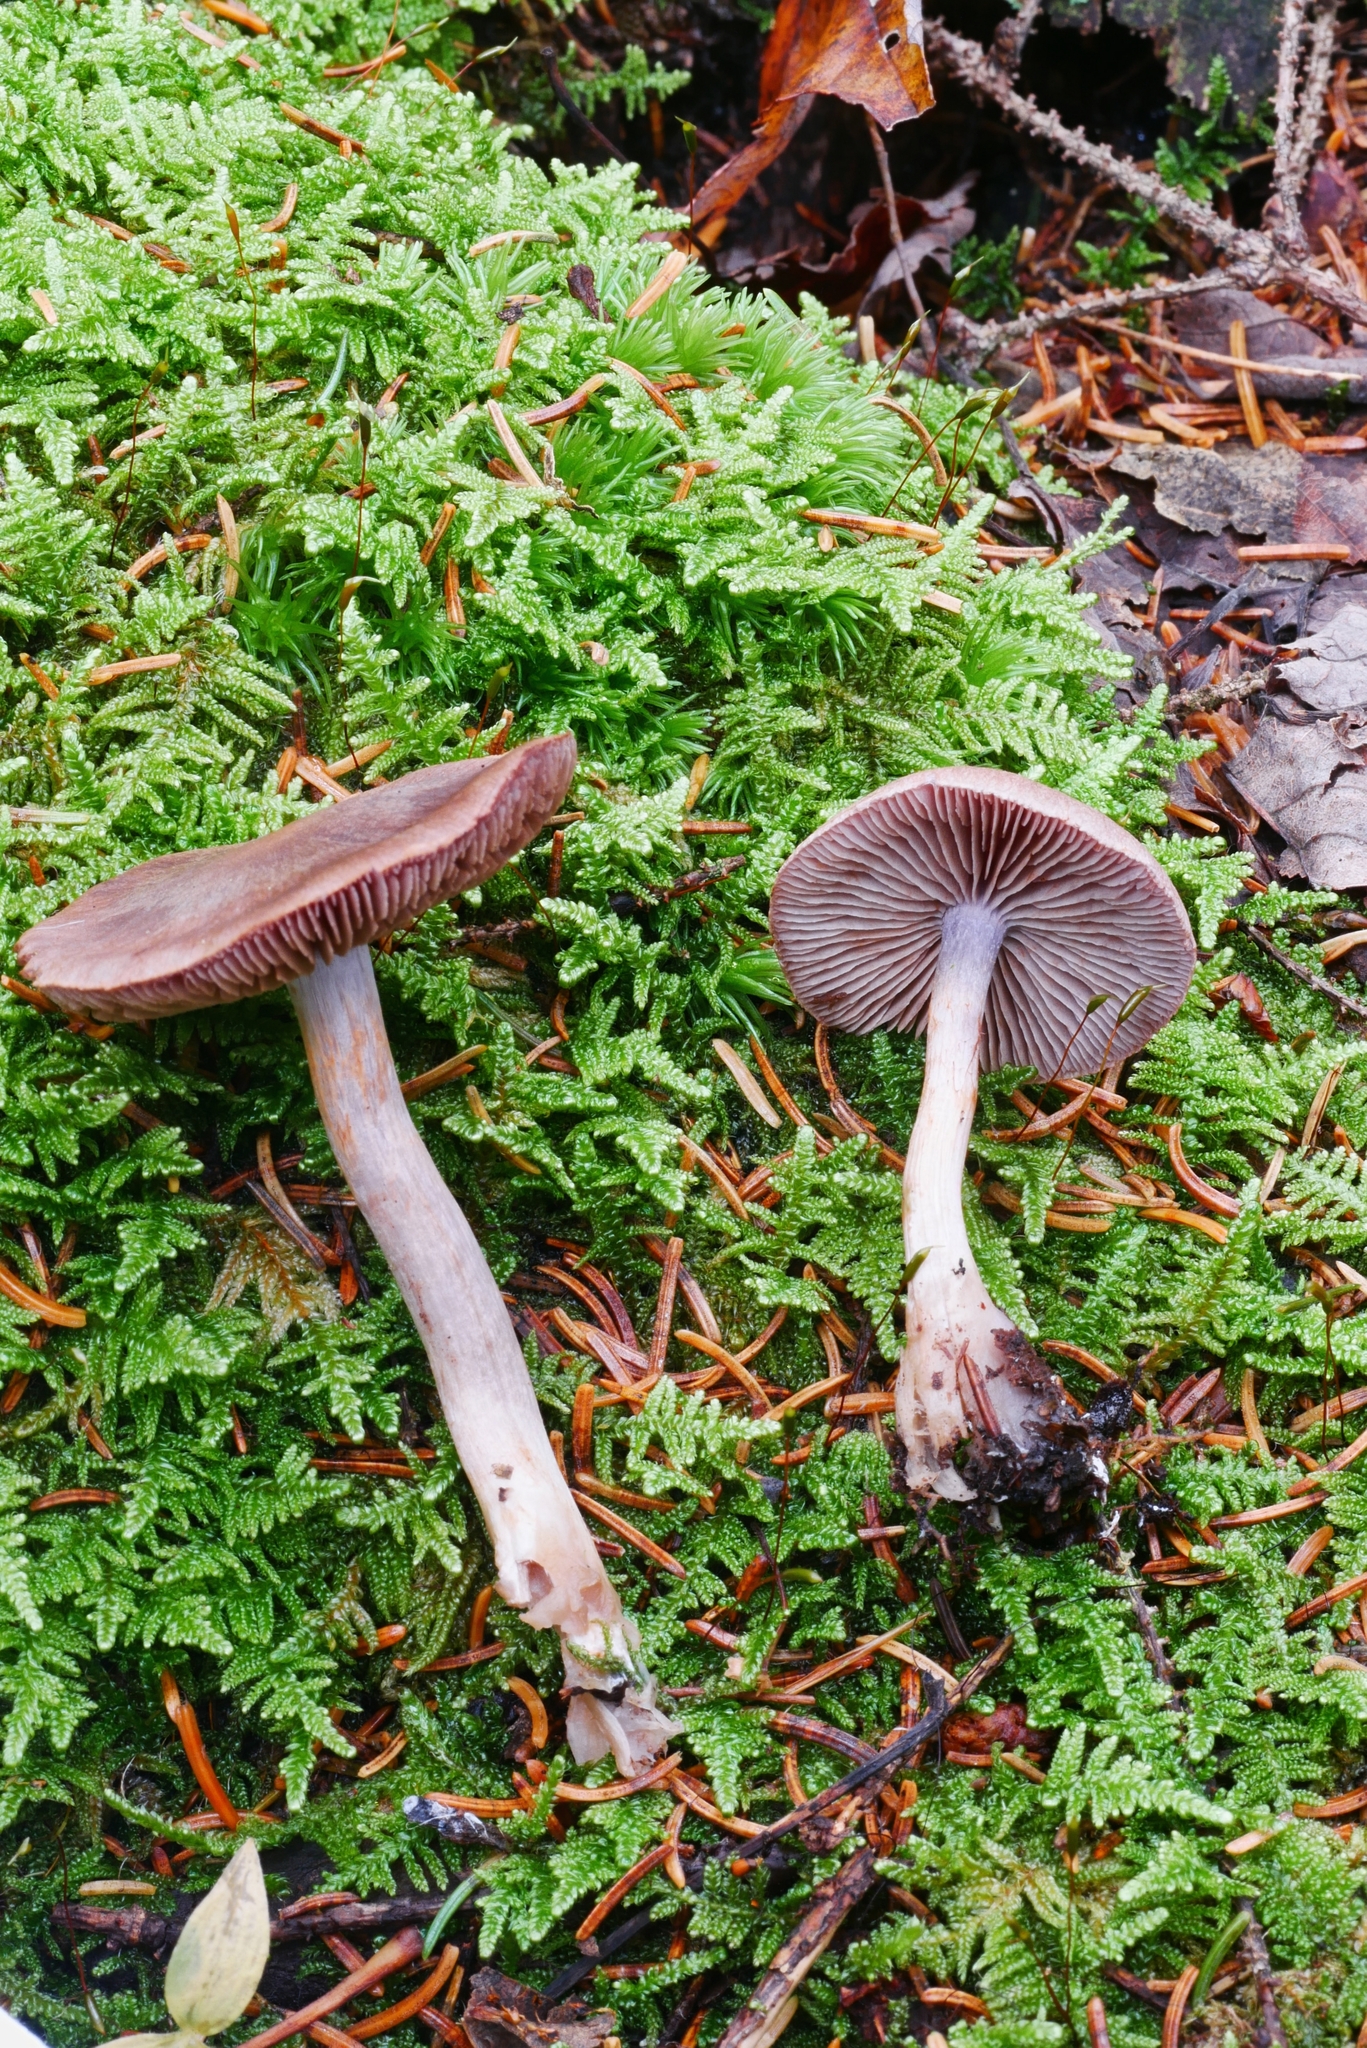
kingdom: Fungi
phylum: Basidiomycota
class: Agaricomycetes
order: Agaricales
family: Cortinariaceae
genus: Cortinarius
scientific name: Cortinarius harvardensis
